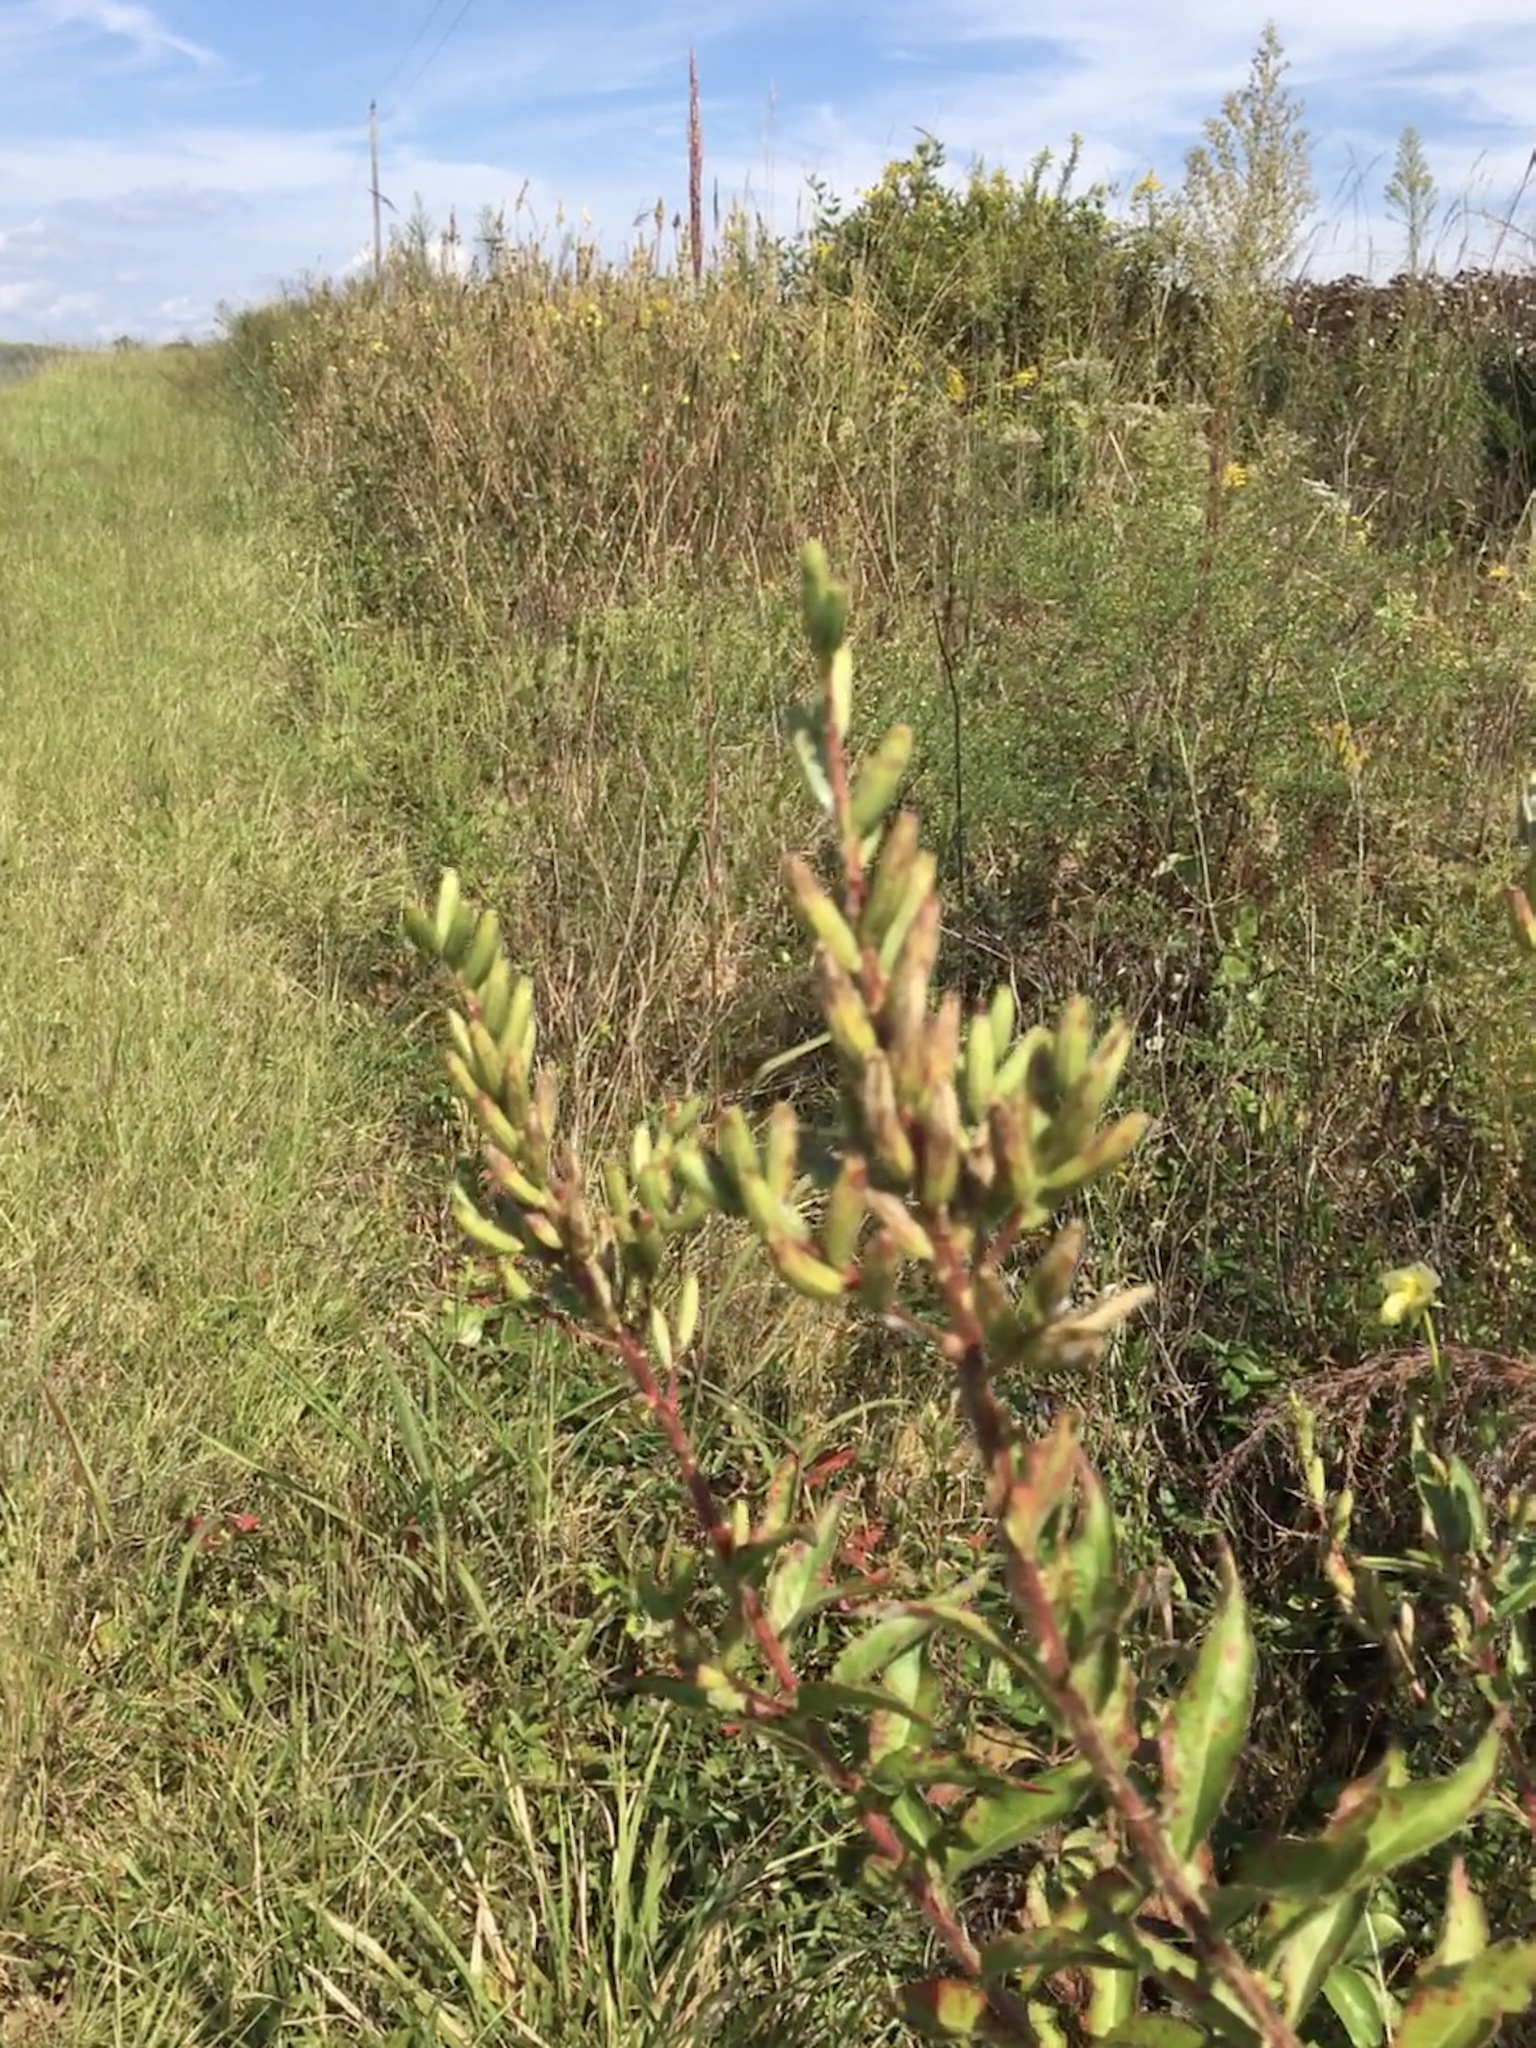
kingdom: Plantae
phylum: Tracheophyta
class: Magnoliopsida
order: Myrtales
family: Onagraceae
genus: Oenothera
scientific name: Oenothera biennis
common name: Common evening-primrose
